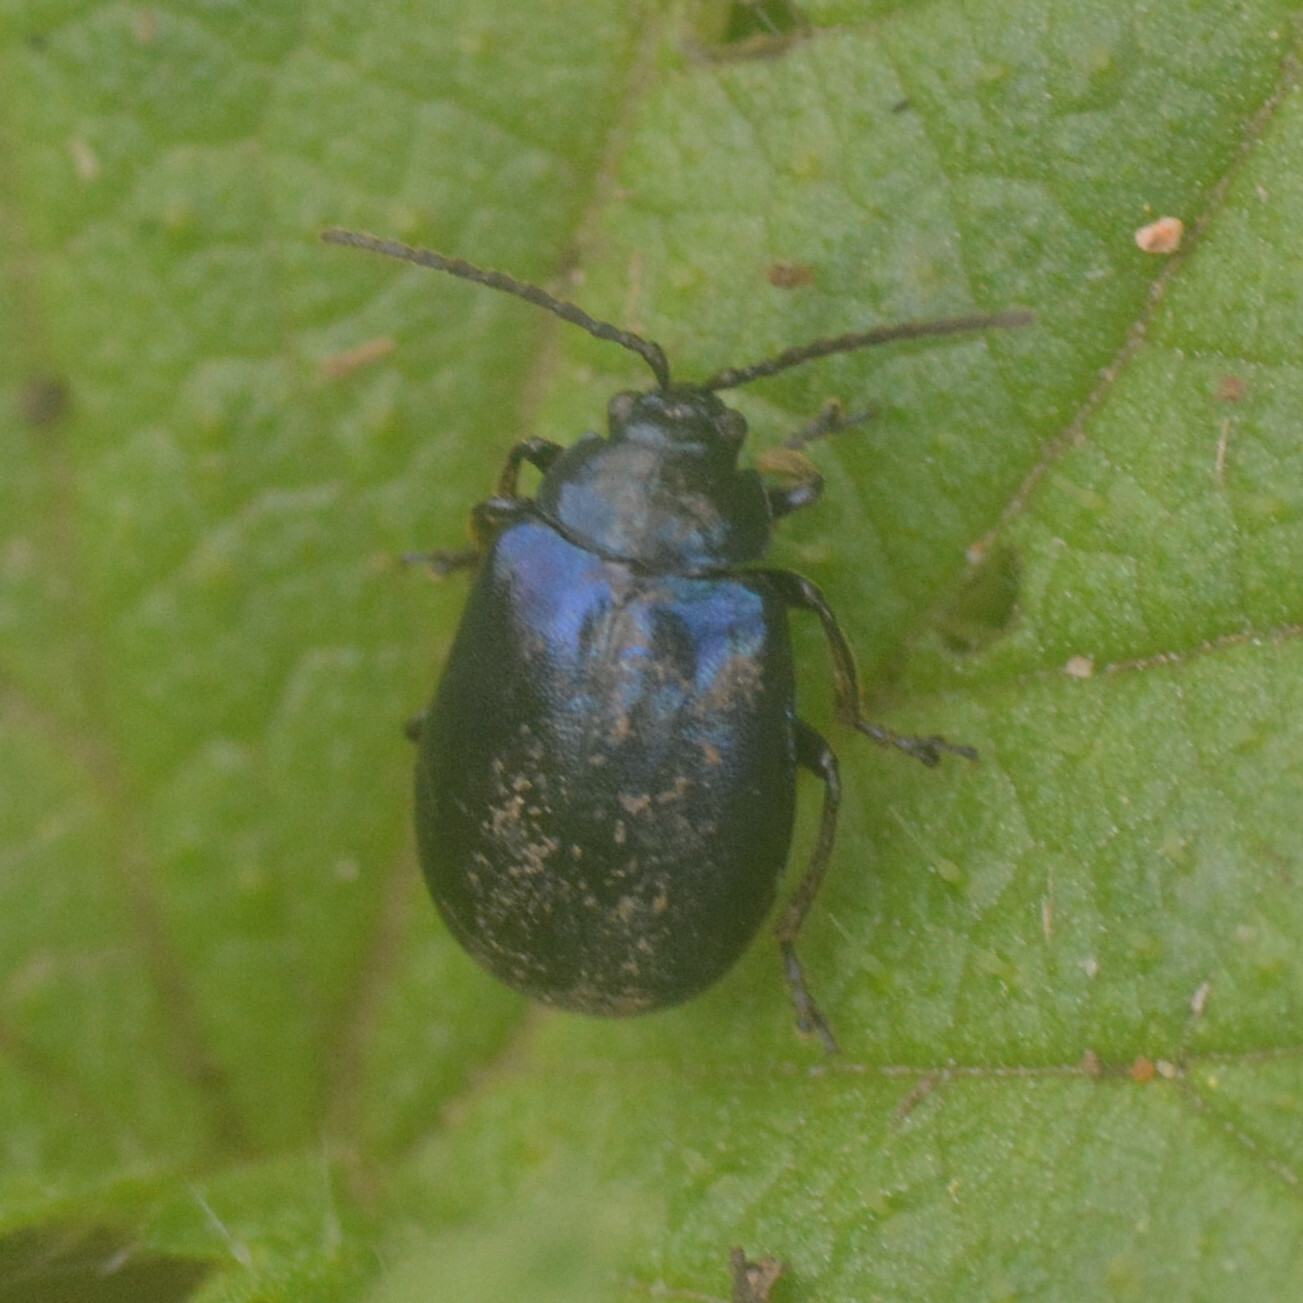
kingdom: Animalia
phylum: Arthropoda
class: Insecta
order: Coleoptera
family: Chrysomelidae
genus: Agelastica
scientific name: Agelastica alni
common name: Alder leaf beetle
